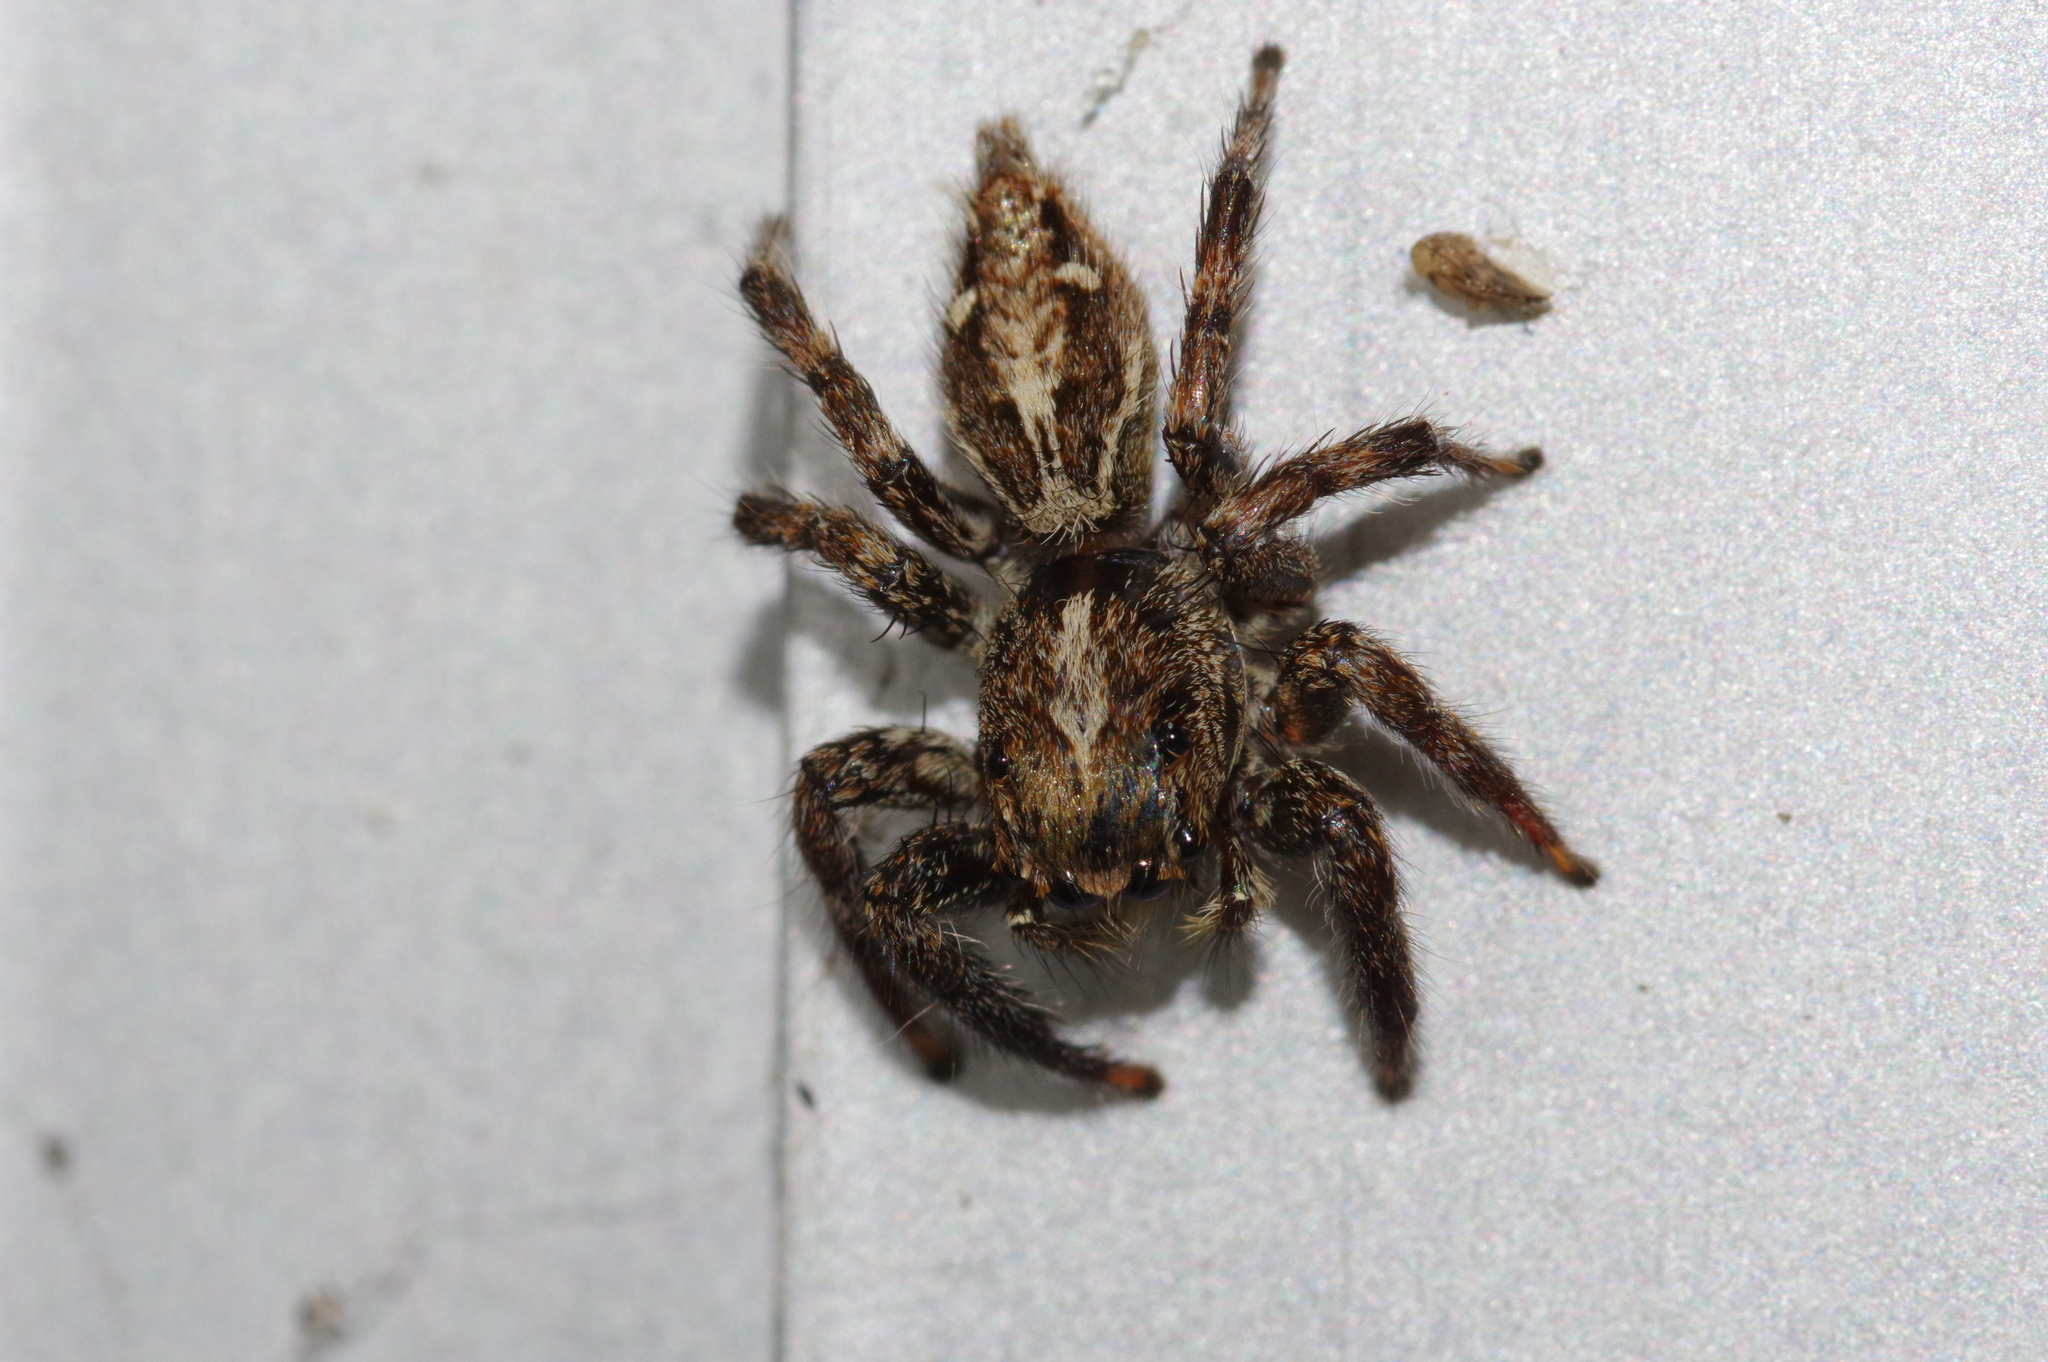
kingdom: Animalia
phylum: Arthropoda
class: Arachnida
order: Araneae
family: Salticidae
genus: Plexippus
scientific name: Plexippus paykulli
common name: Pantropical jumper
